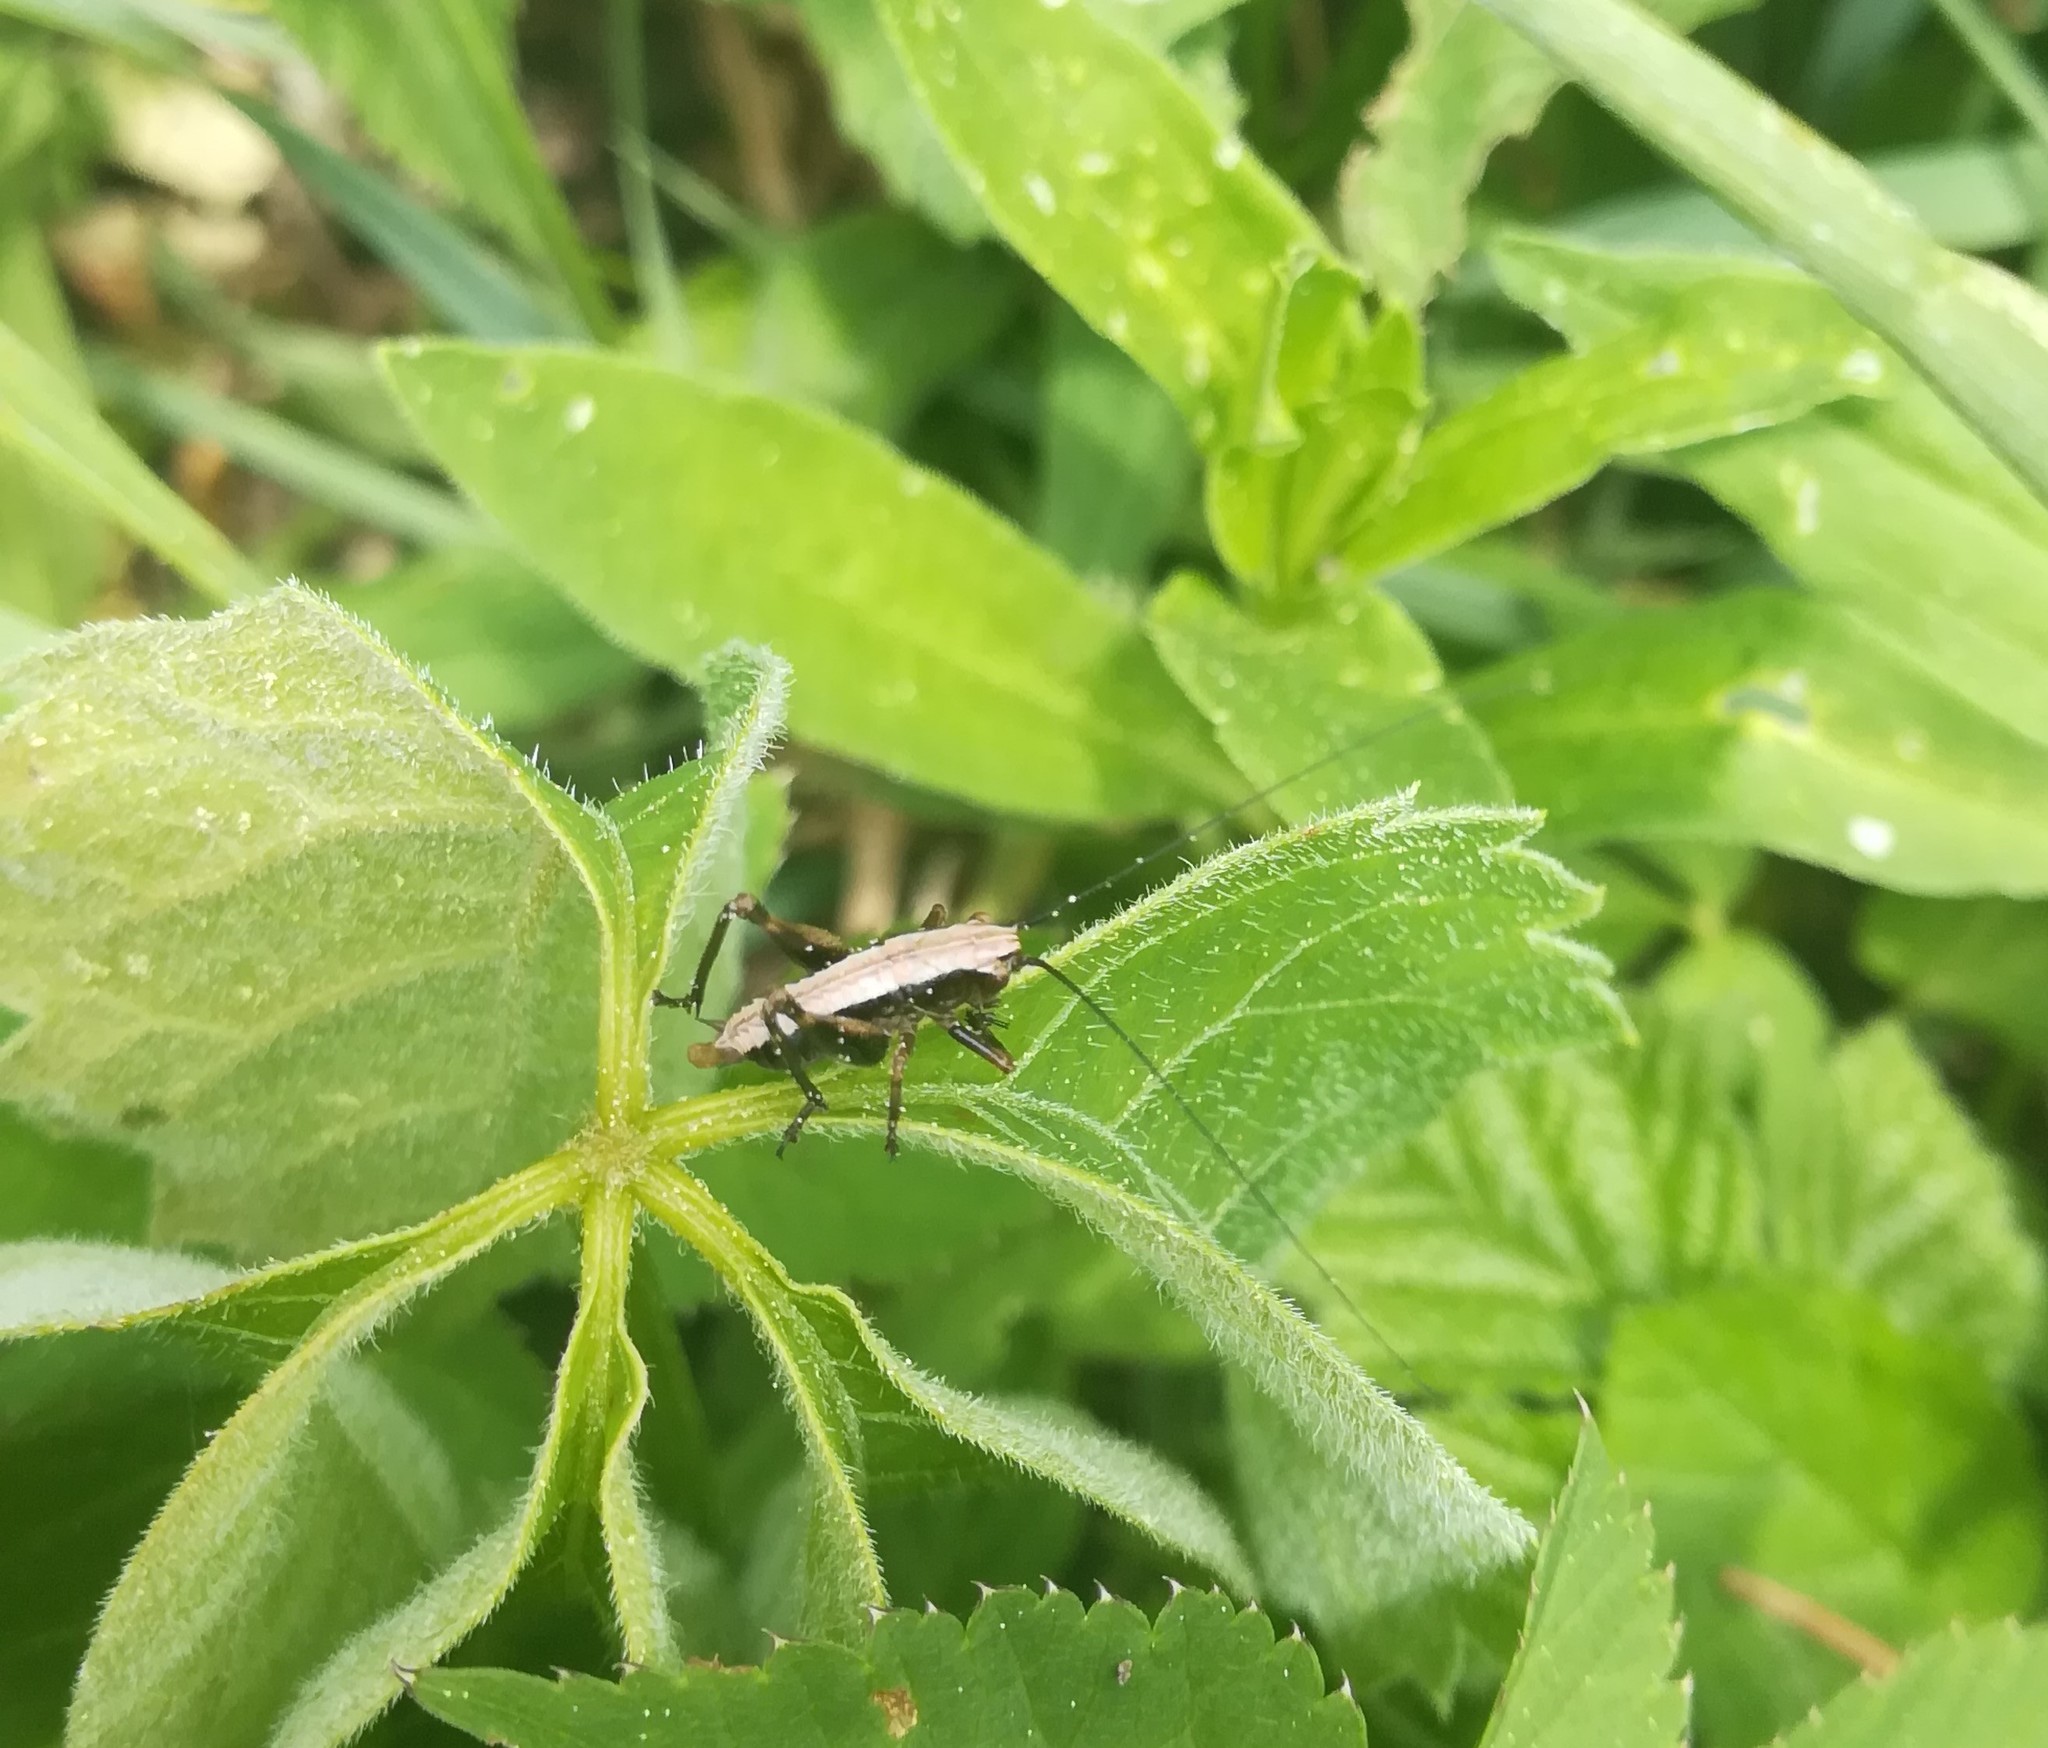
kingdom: Animalia
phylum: Arthropoda
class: Insecta
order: Orthoptera
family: Tettigoniidae
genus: Pholidoptera
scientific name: Pholidoptera griseoaptera
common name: Dark bush-cricket
